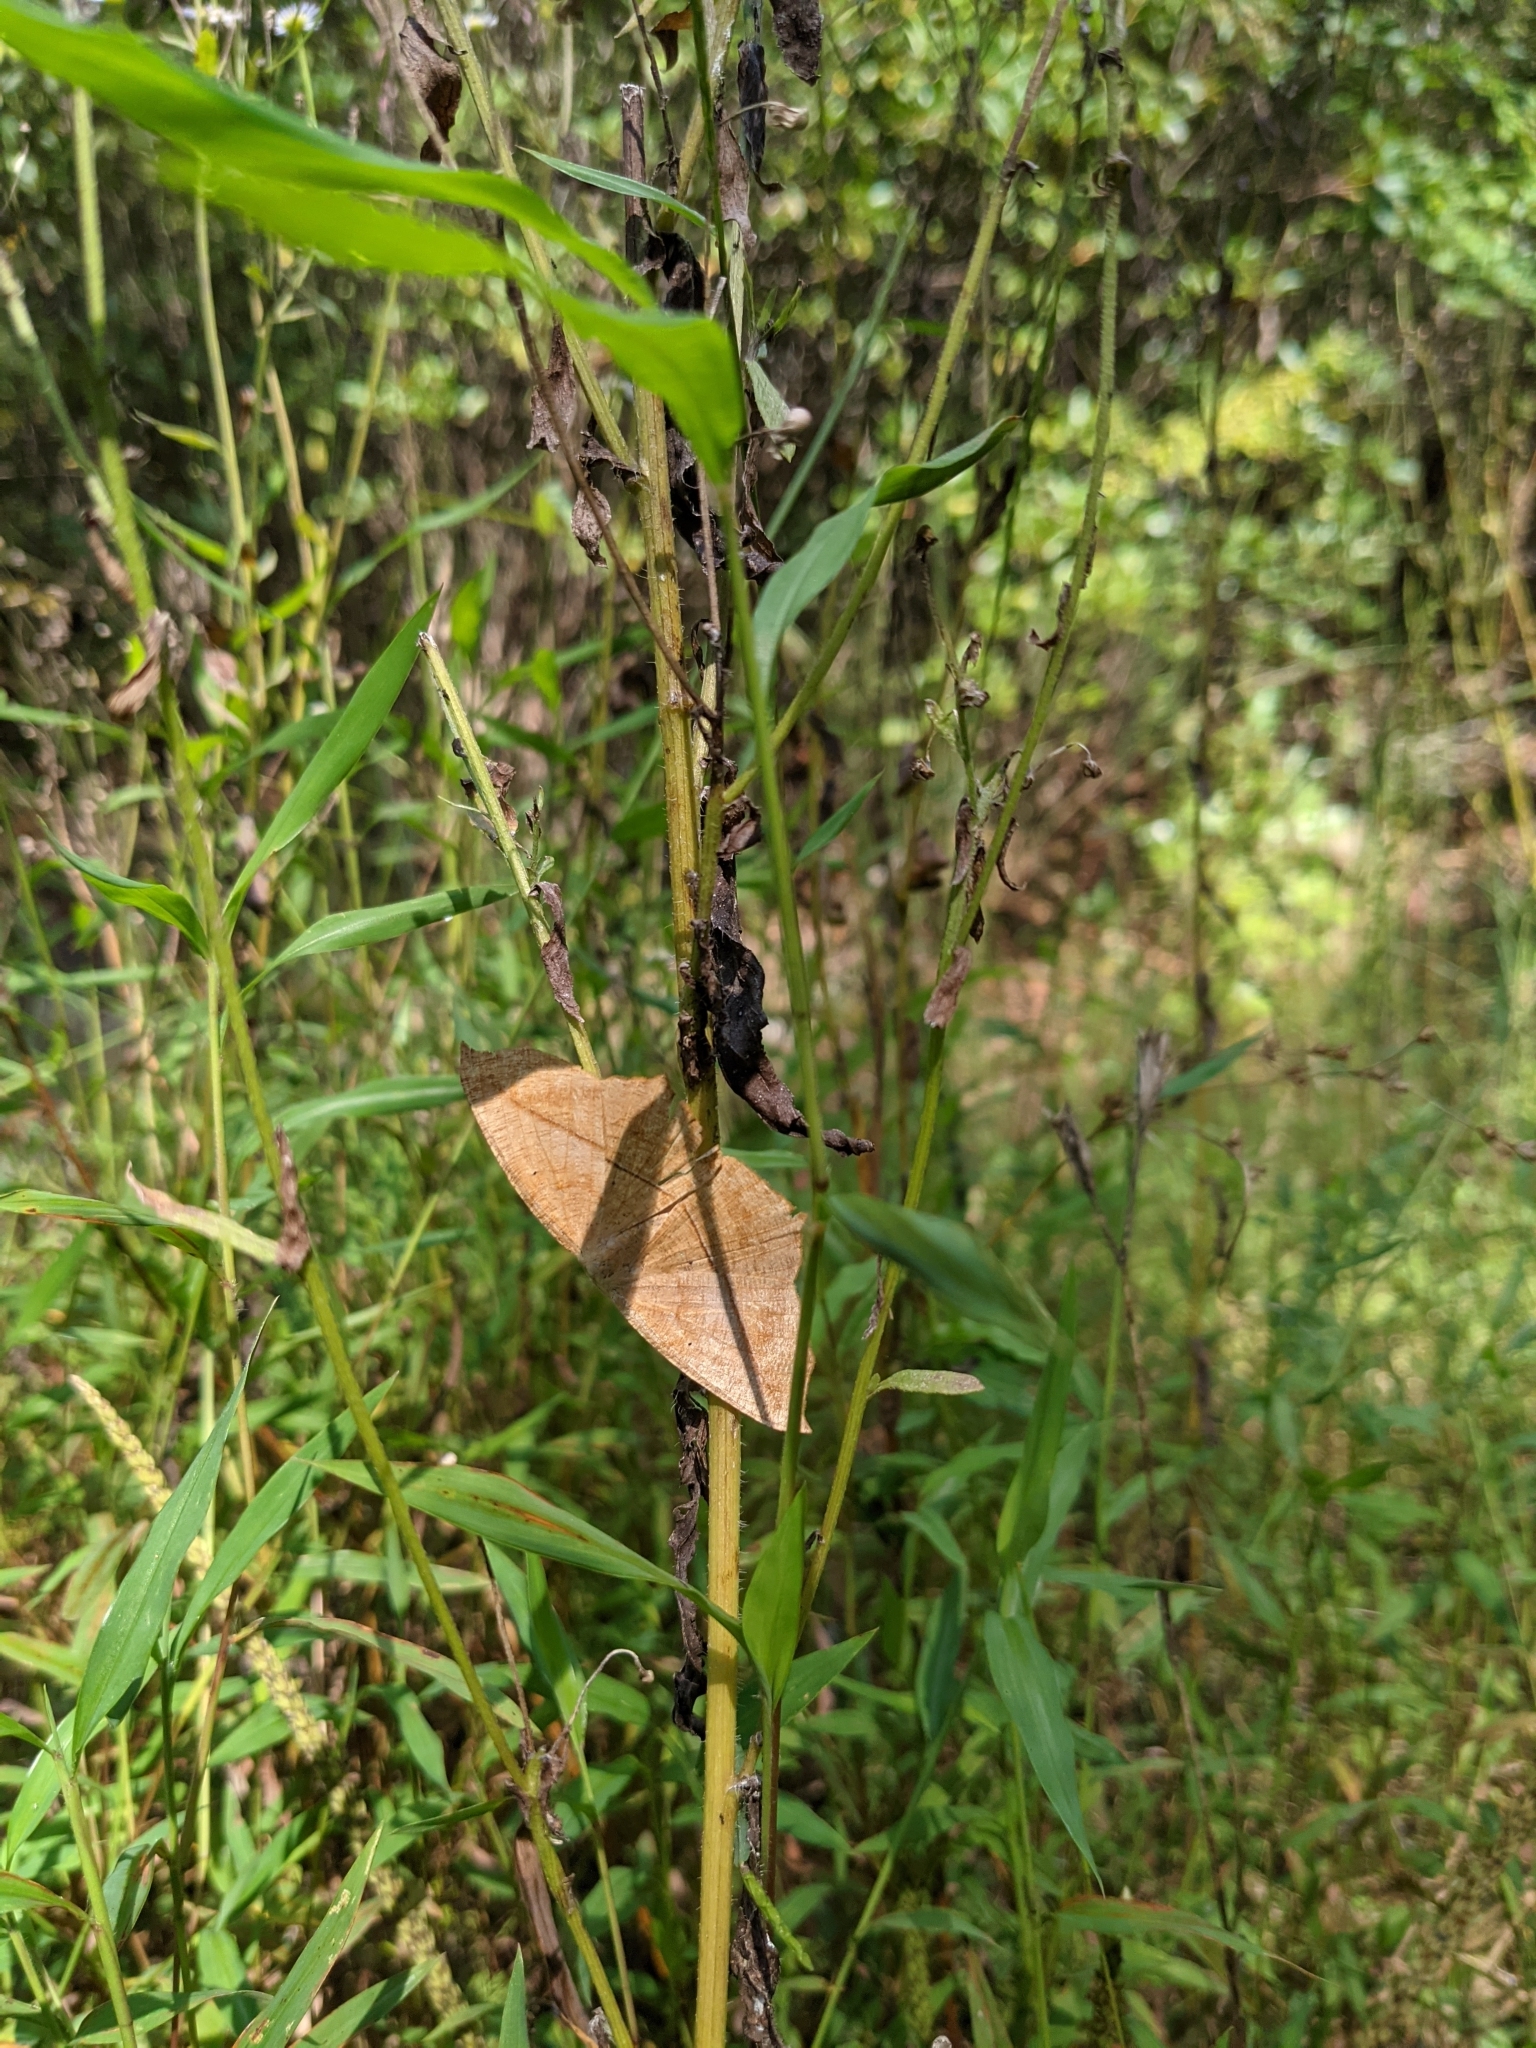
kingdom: Animalia
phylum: Arthropoda
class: Insecta
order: Lepidoptera
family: Geometridae
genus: Prochoerodes
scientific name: Prochoerodes lineola
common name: Large maple spanworm
